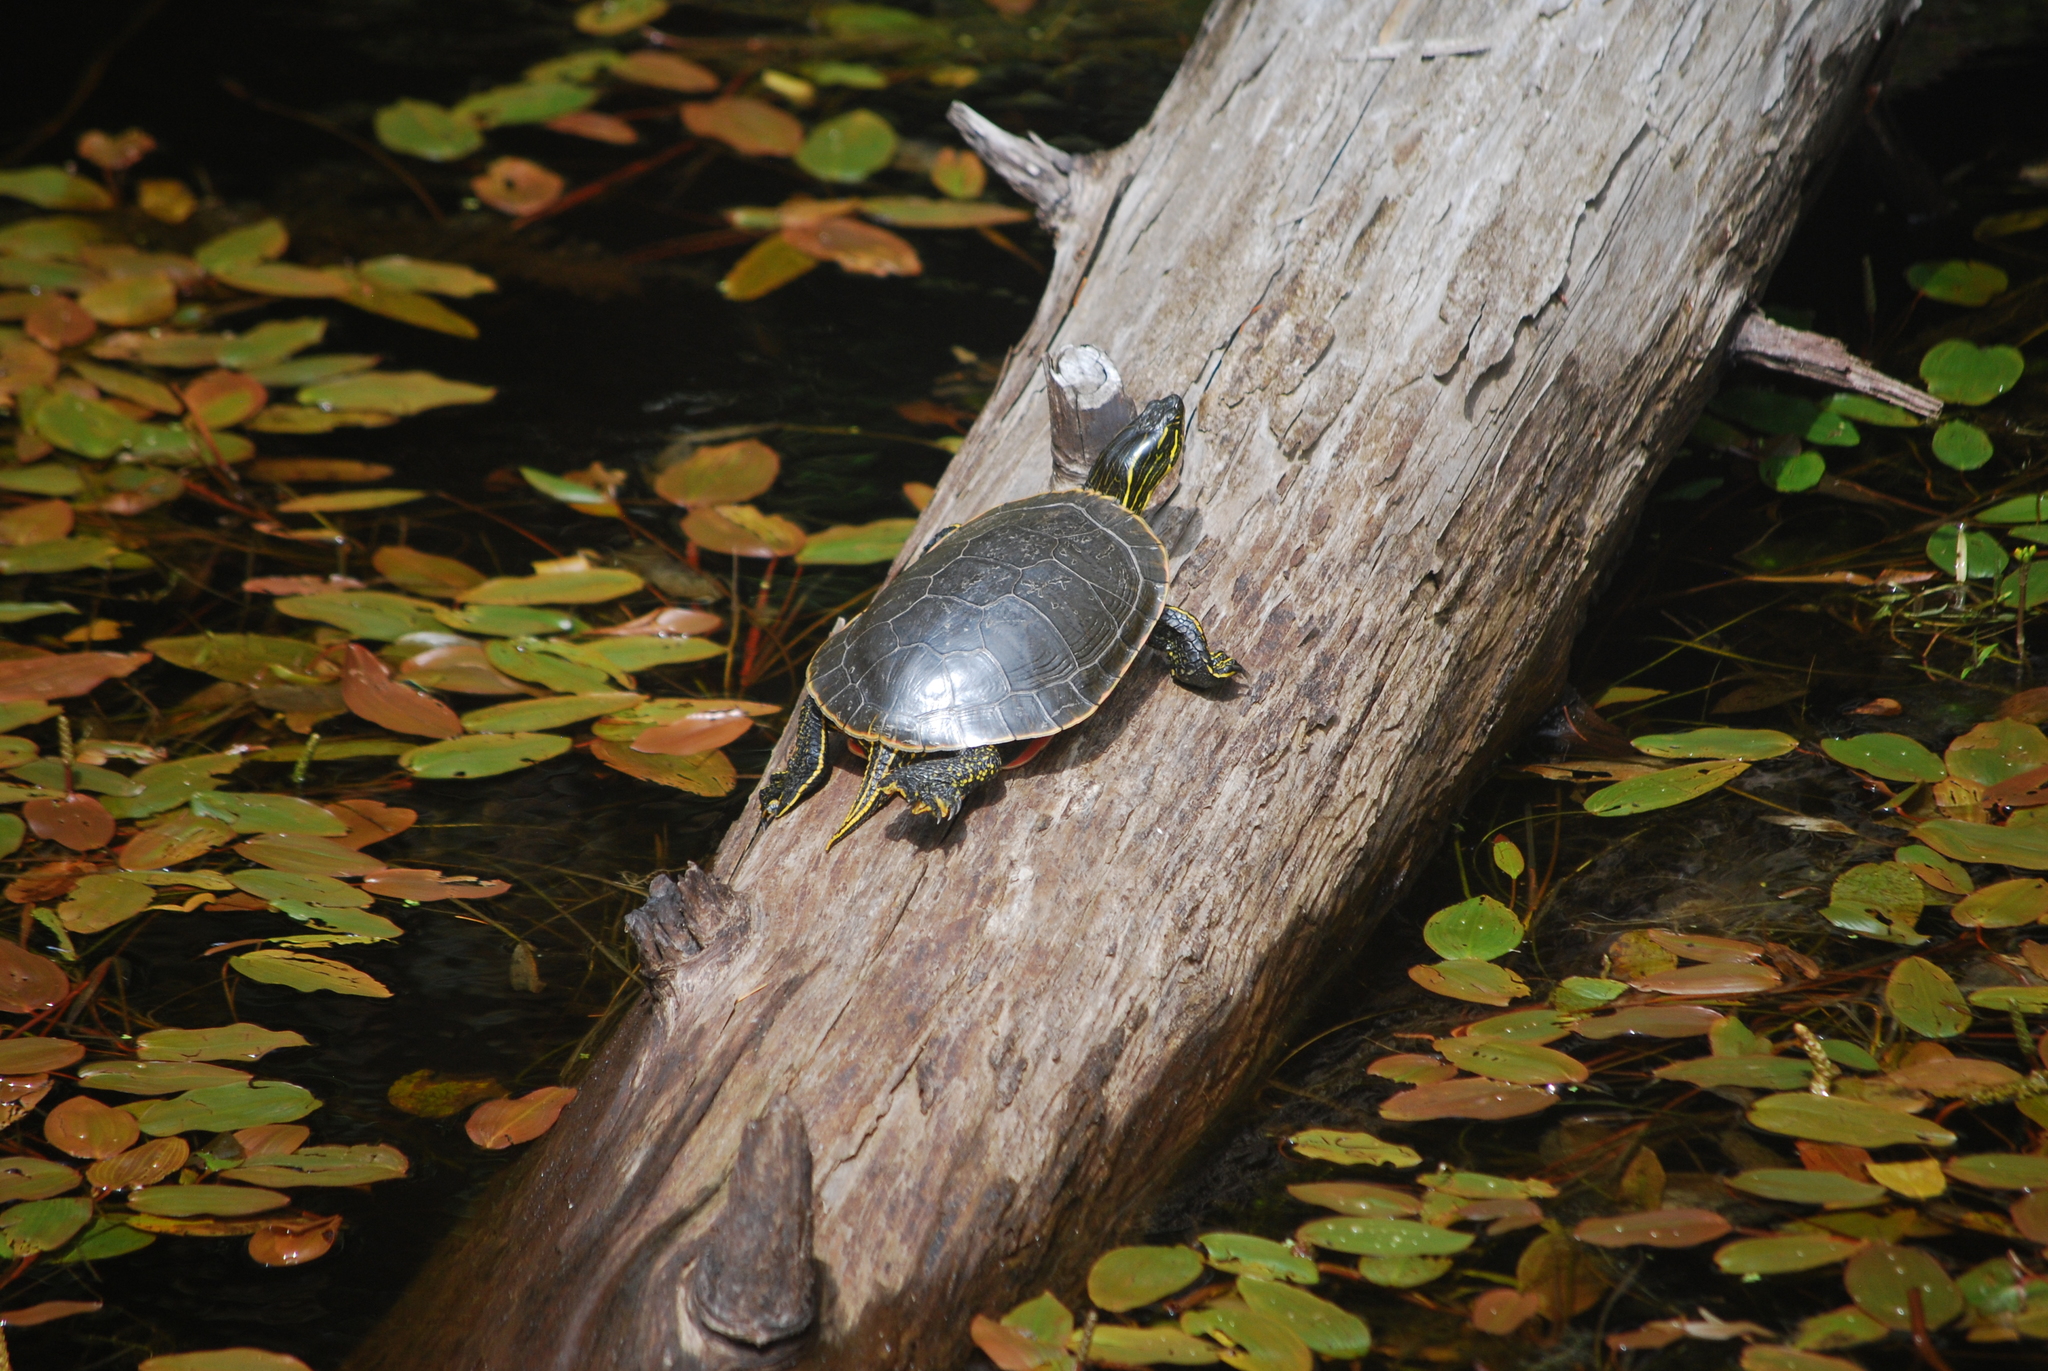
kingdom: Animalia
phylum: Chordata
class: Testudines
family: Emydidae
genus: Chrysemys
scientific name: Chrysemys picta
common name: Painted turtle
